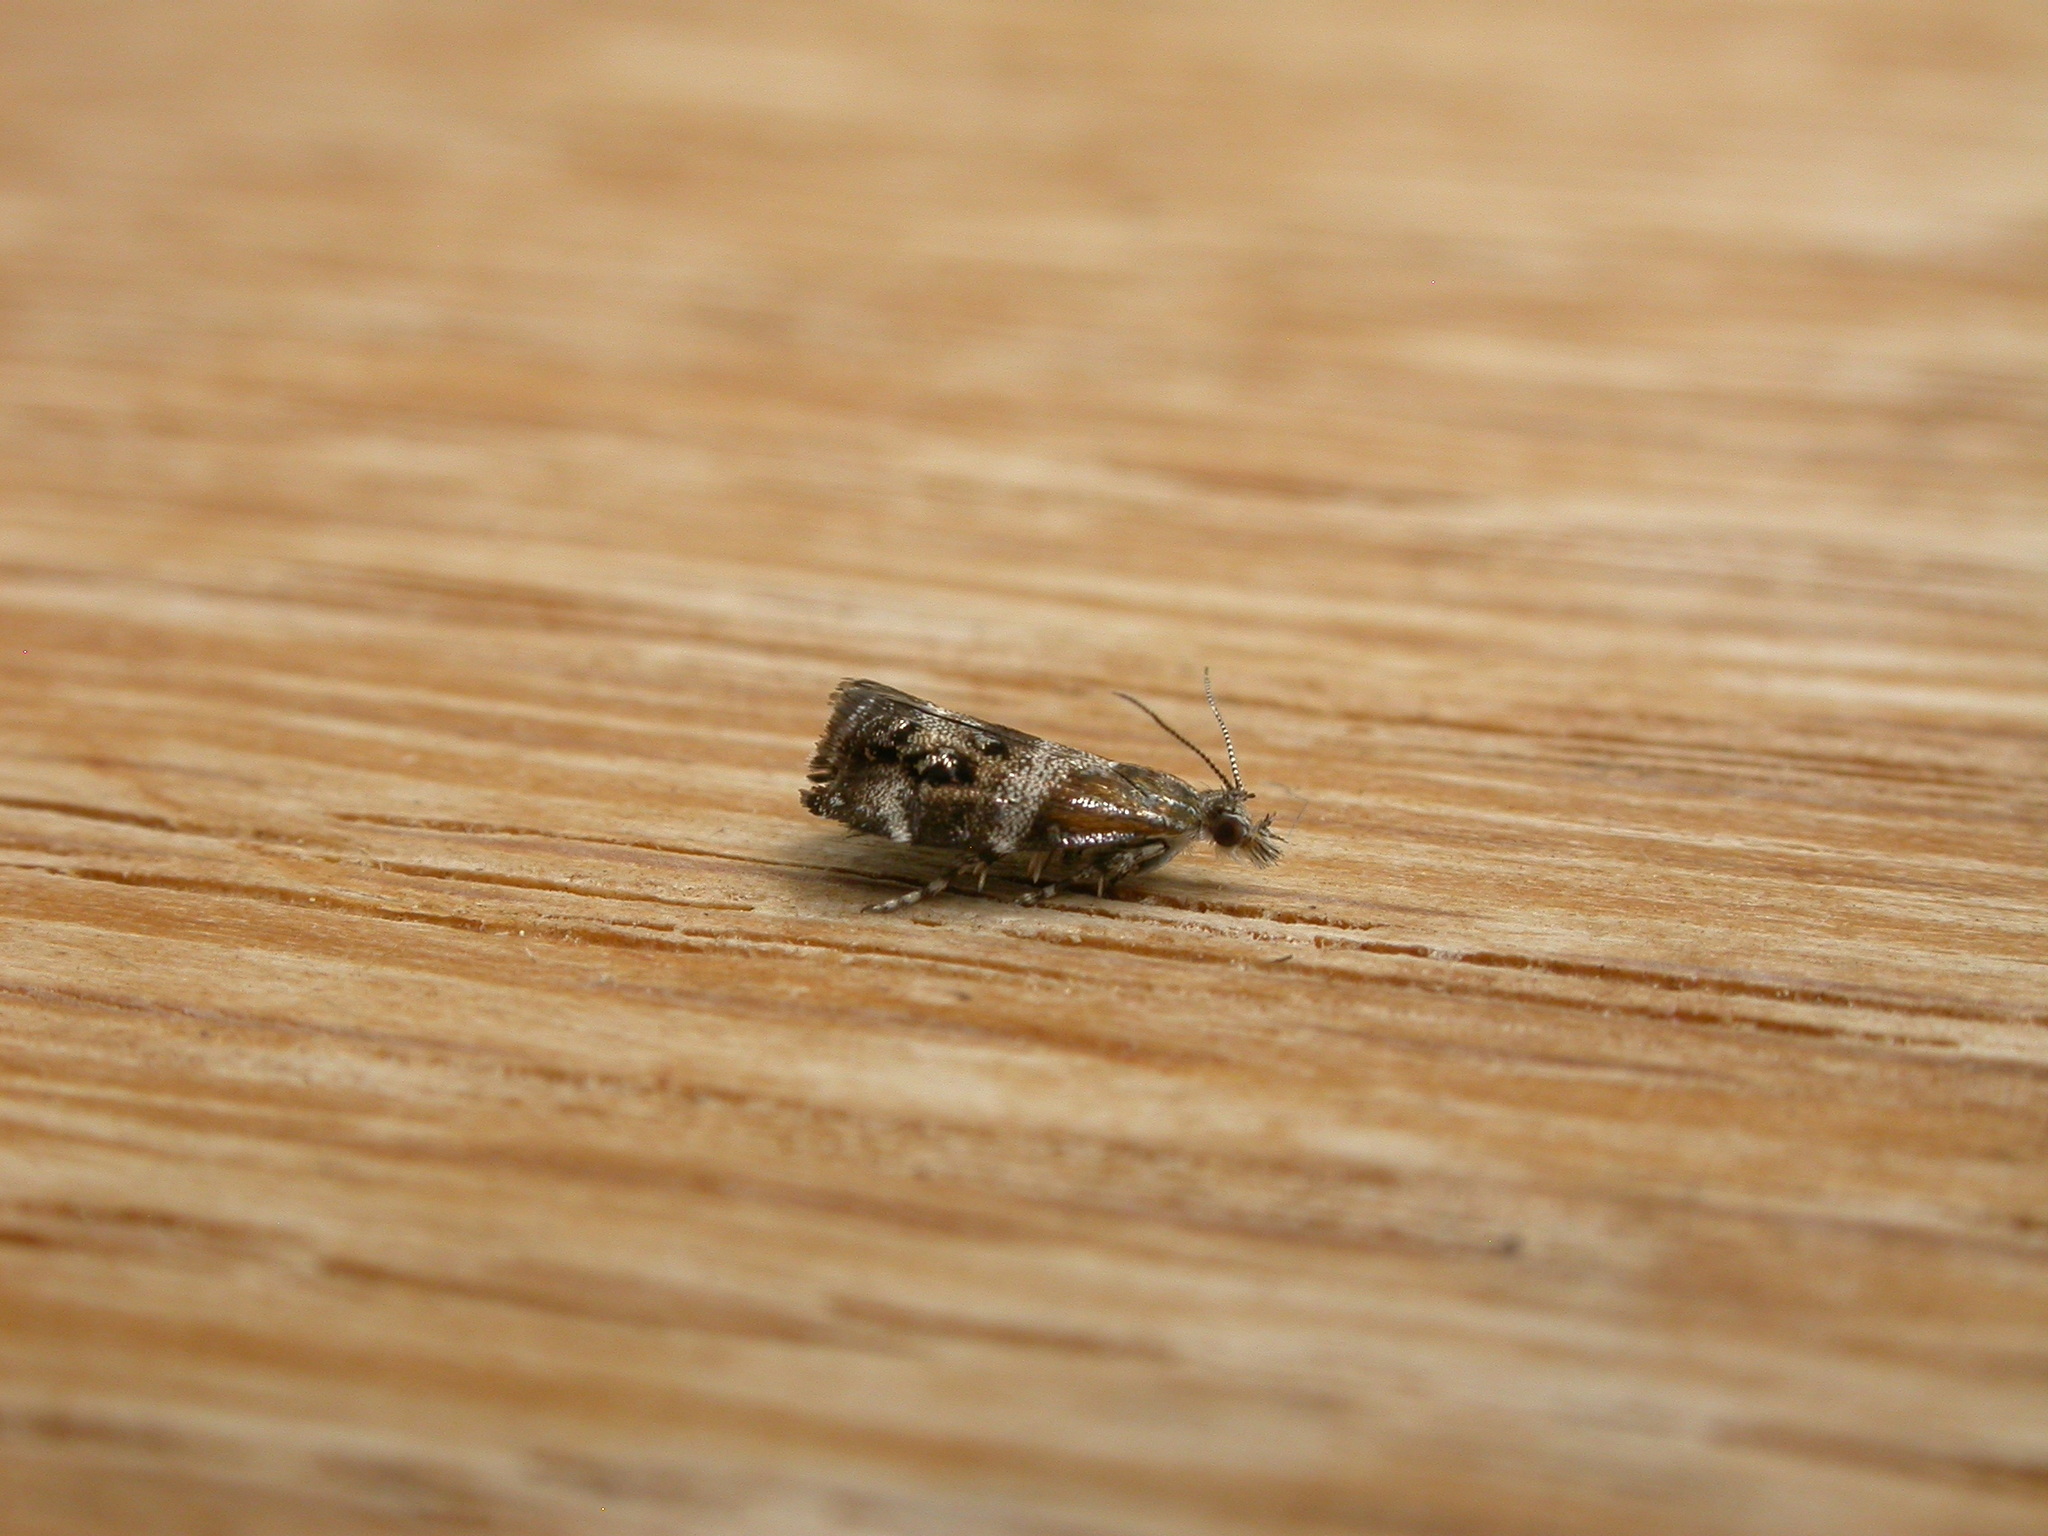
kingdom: Animalia
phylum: Arthropoda
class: Insecta
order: Lepidoptera
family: Choreutidae
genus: Tebenna
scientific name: Tebenna micalis
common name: Vagrant twitcher
